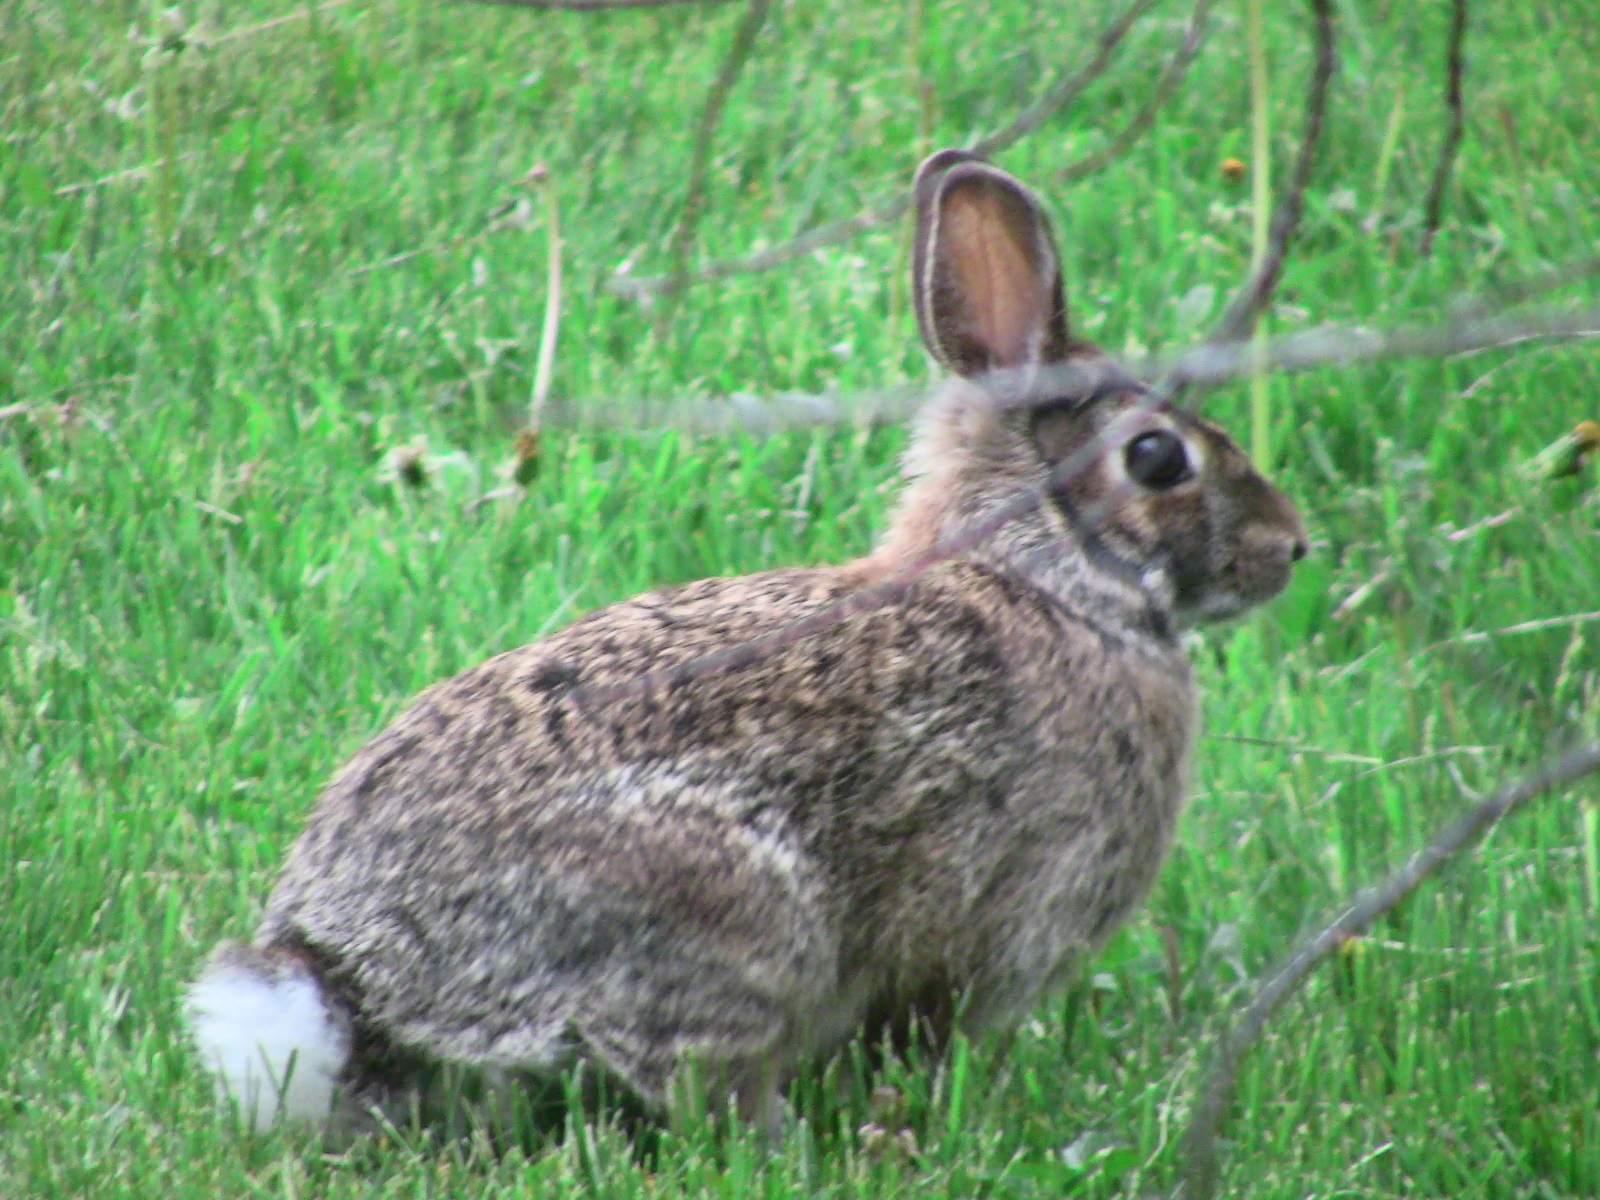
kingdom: Animalia
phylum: Chordata
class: Mammalia
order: Lagomorpha
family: Leporidae
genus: Sylvilagus
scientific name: Sylvilagus floridanus
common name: Eastern cottontail
